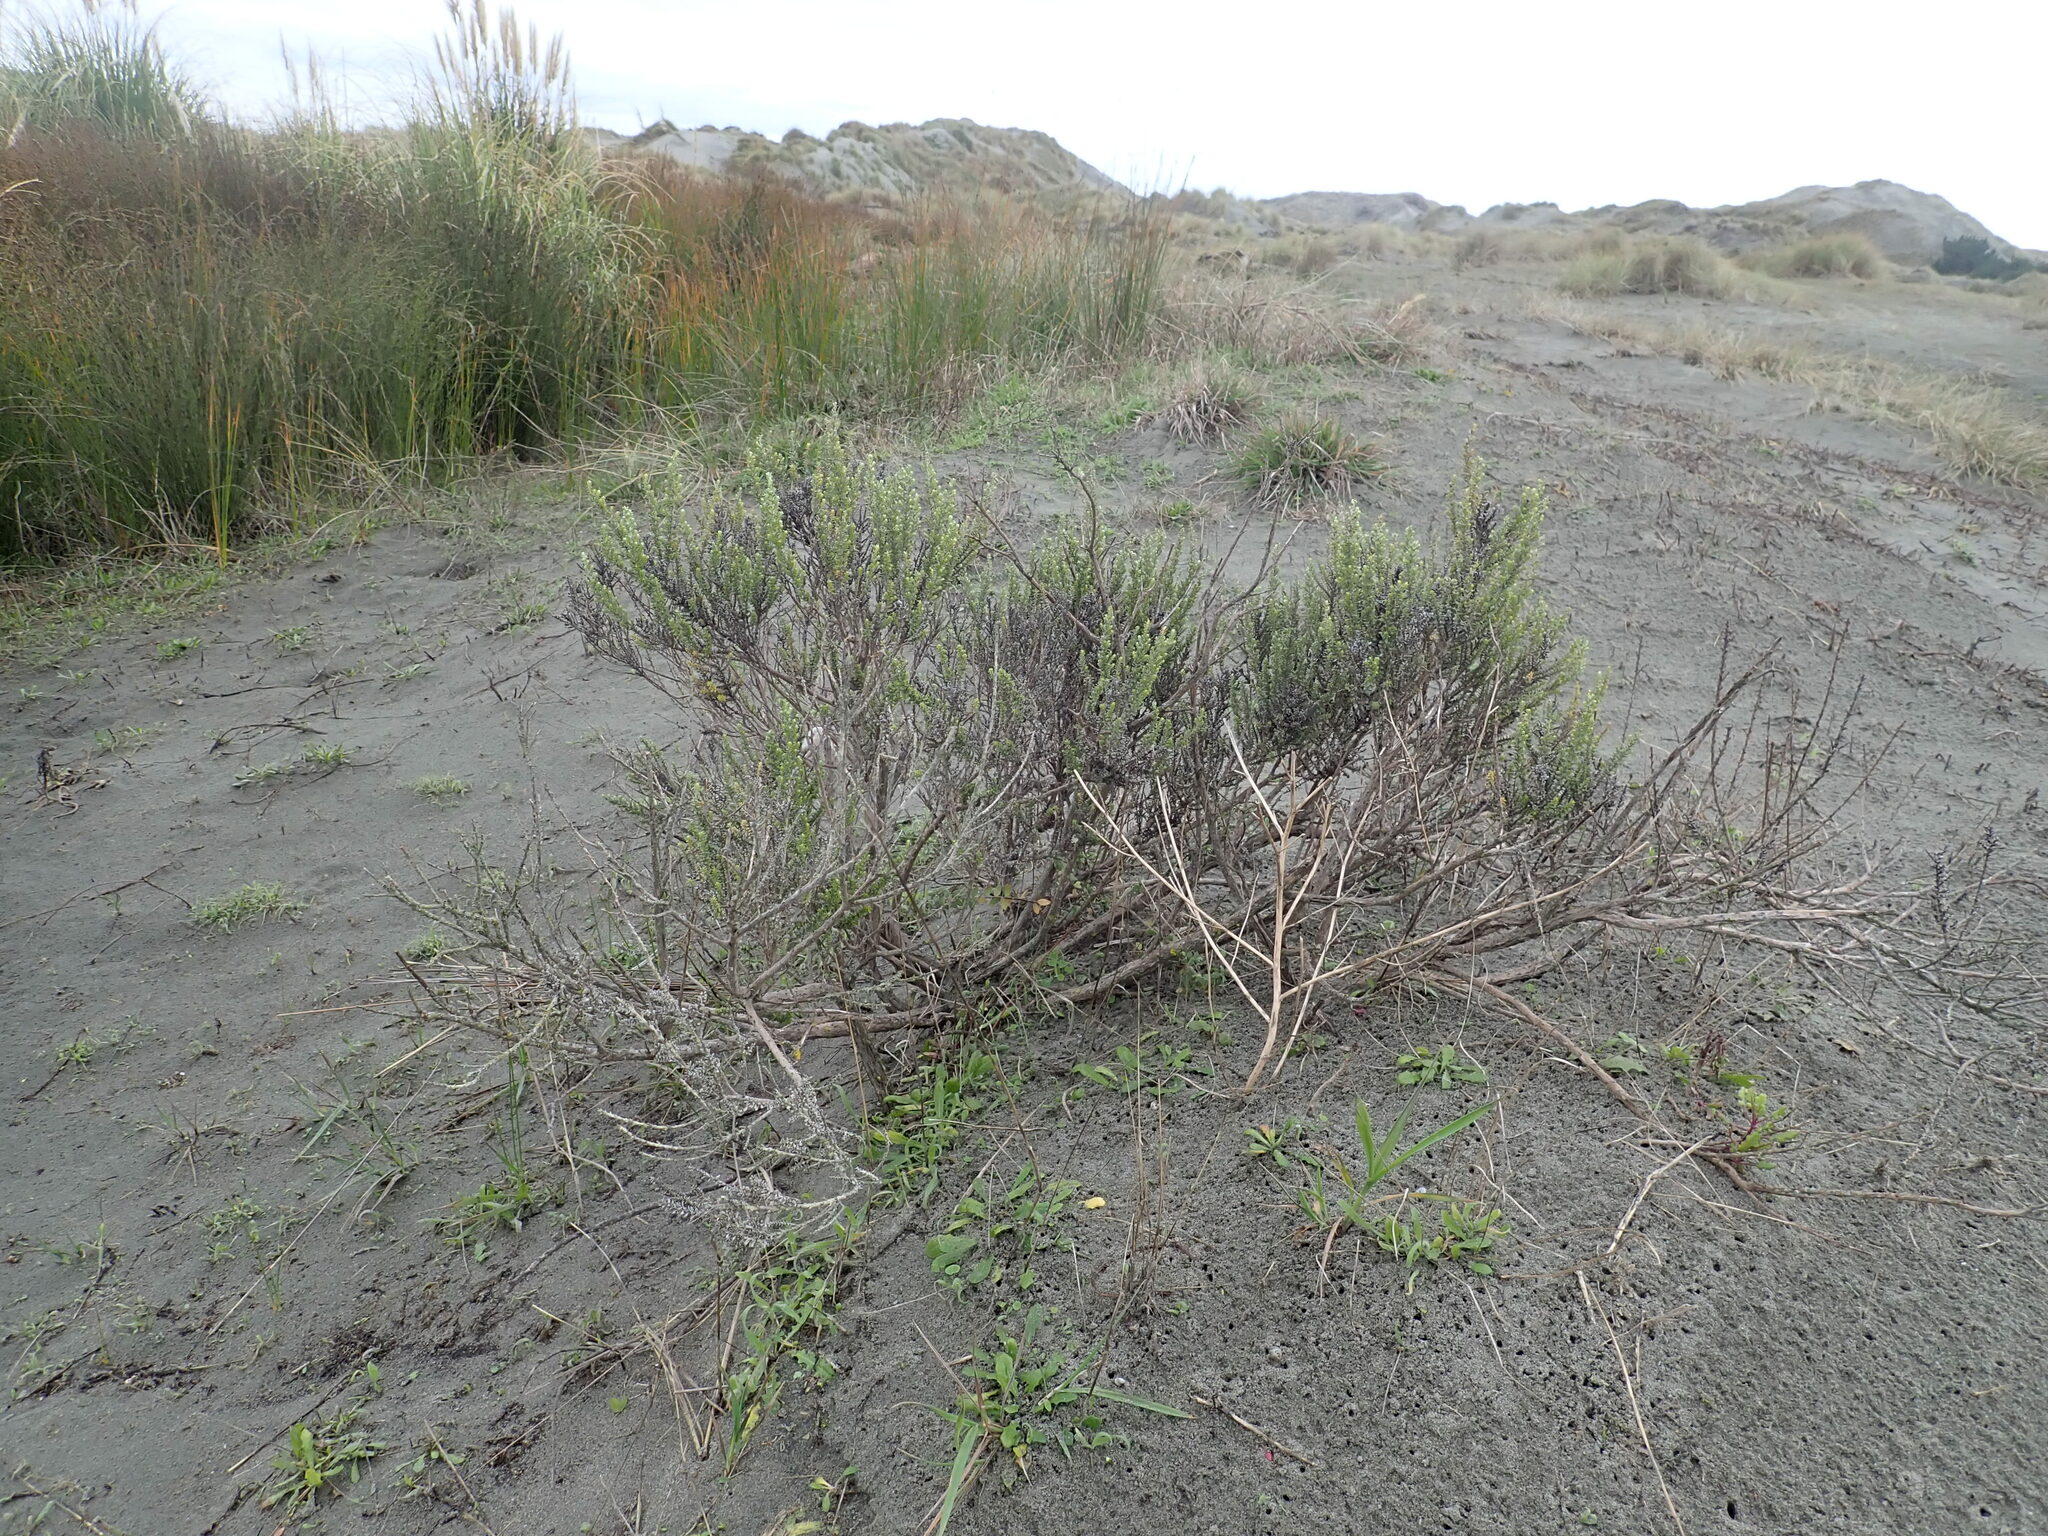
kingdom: Plantae
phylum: Tracheophyta
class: Magnoliopsida
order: Asterales
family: Asteraceae
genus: Ozothamnus
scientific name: Ozothamnus leptophyllus
